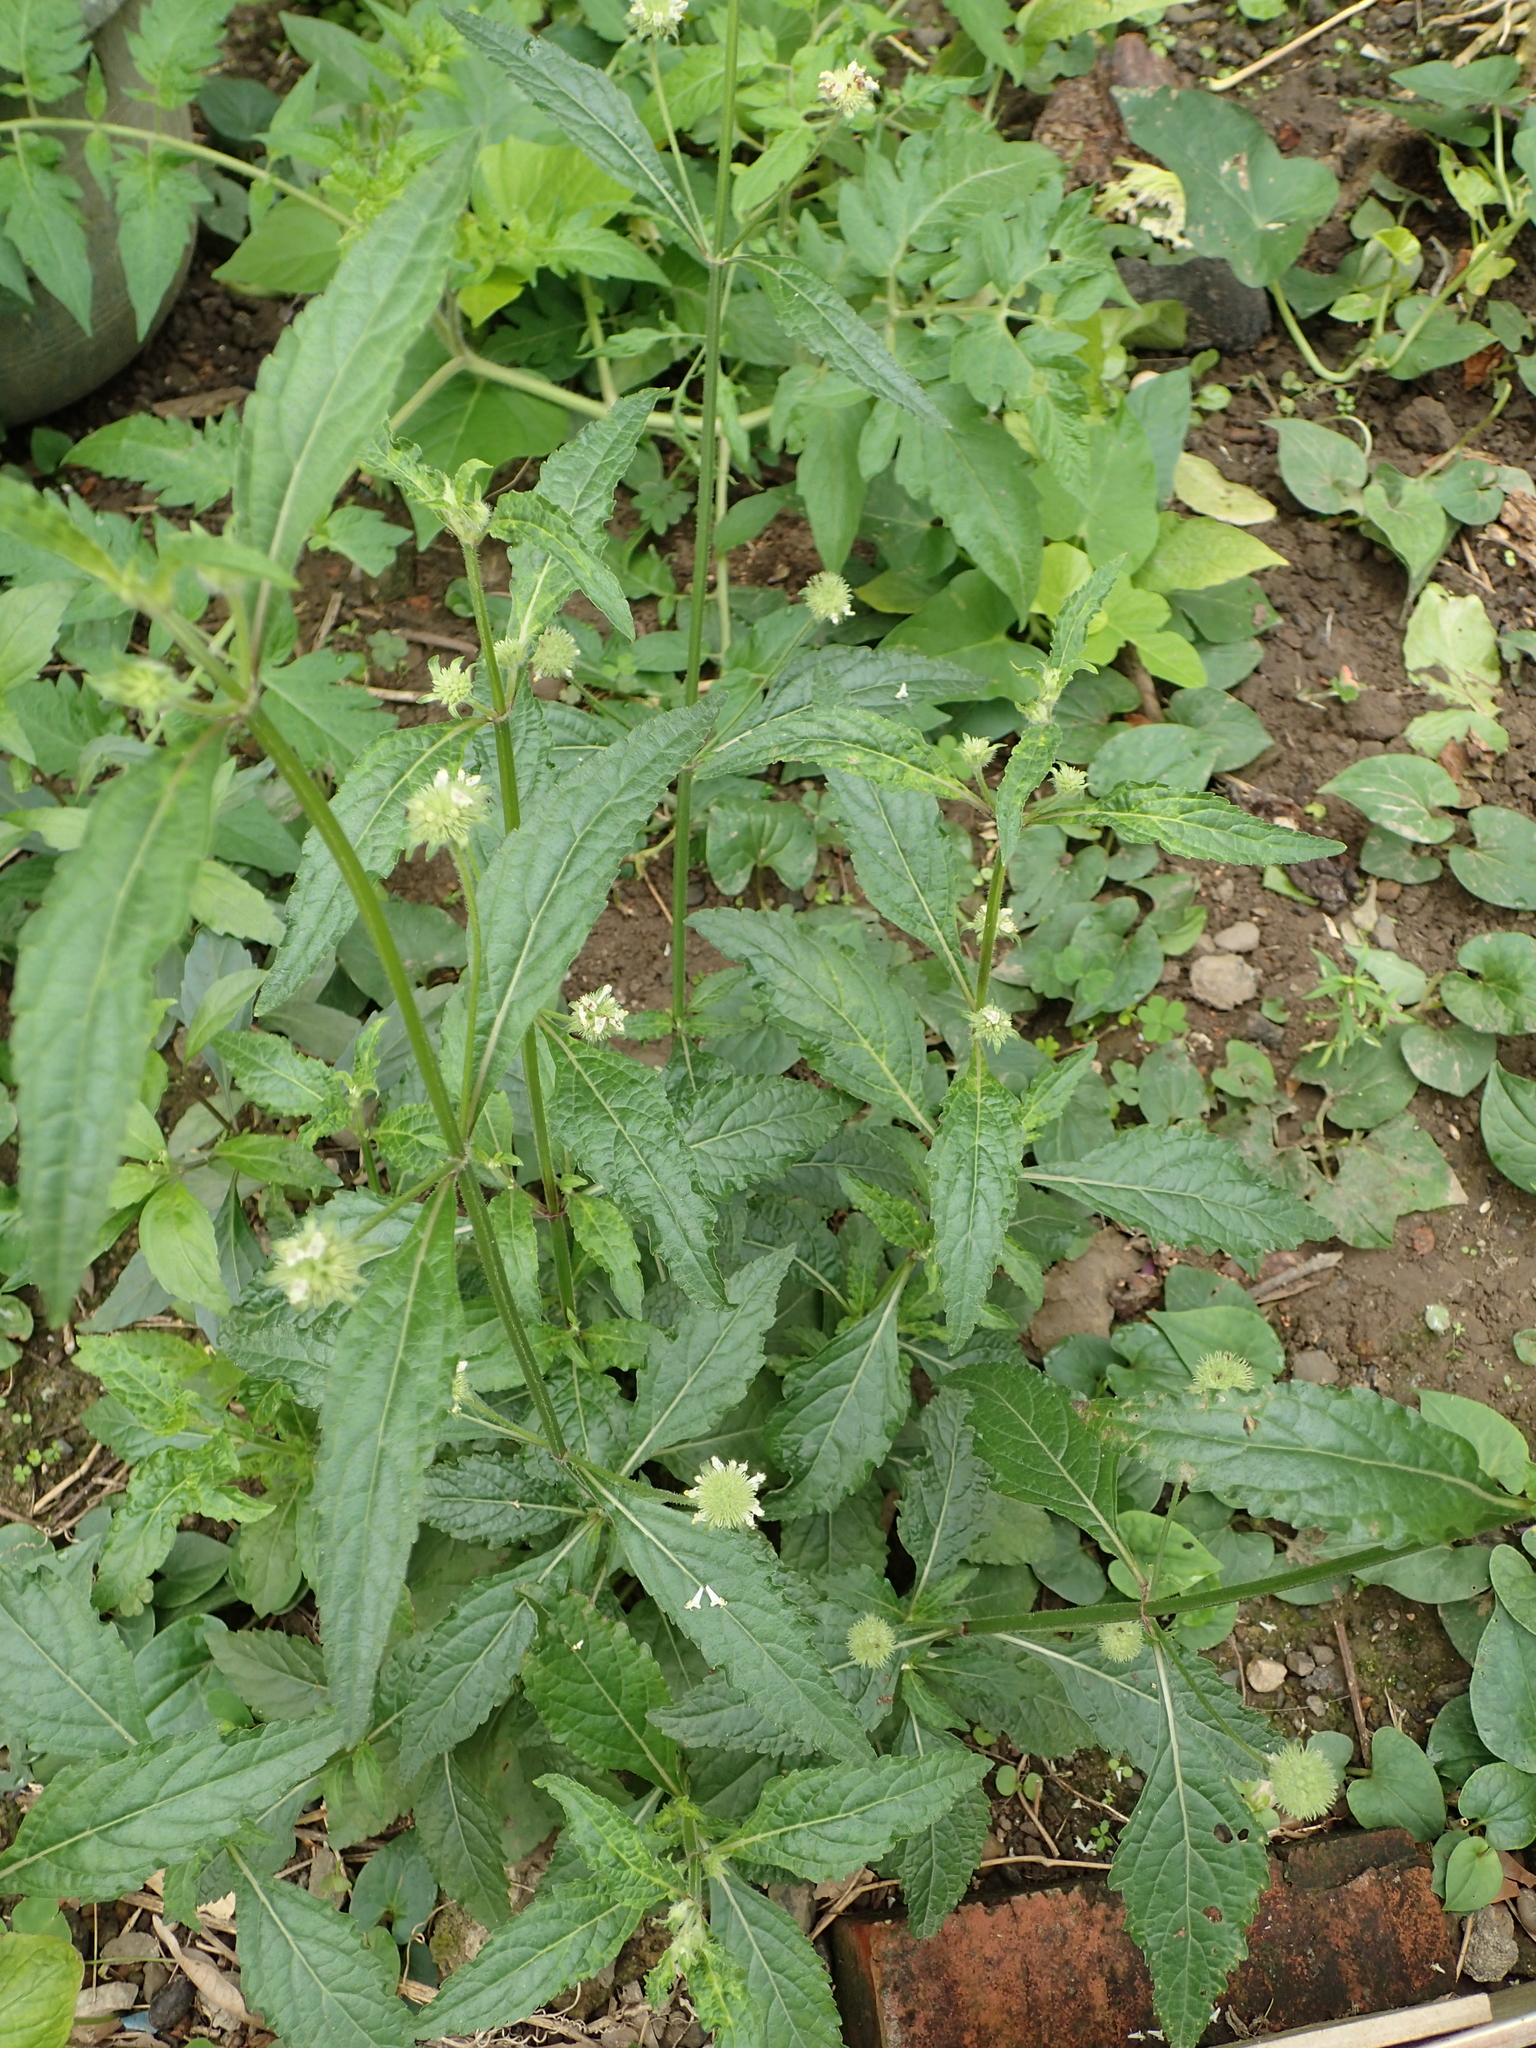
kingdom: Plantae
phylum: Tracheophyta
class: Magnoliopsida
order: Lamiales
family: Lamiaceae
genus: Hyptis
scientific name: Hyptis capitata
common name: False ironwort
